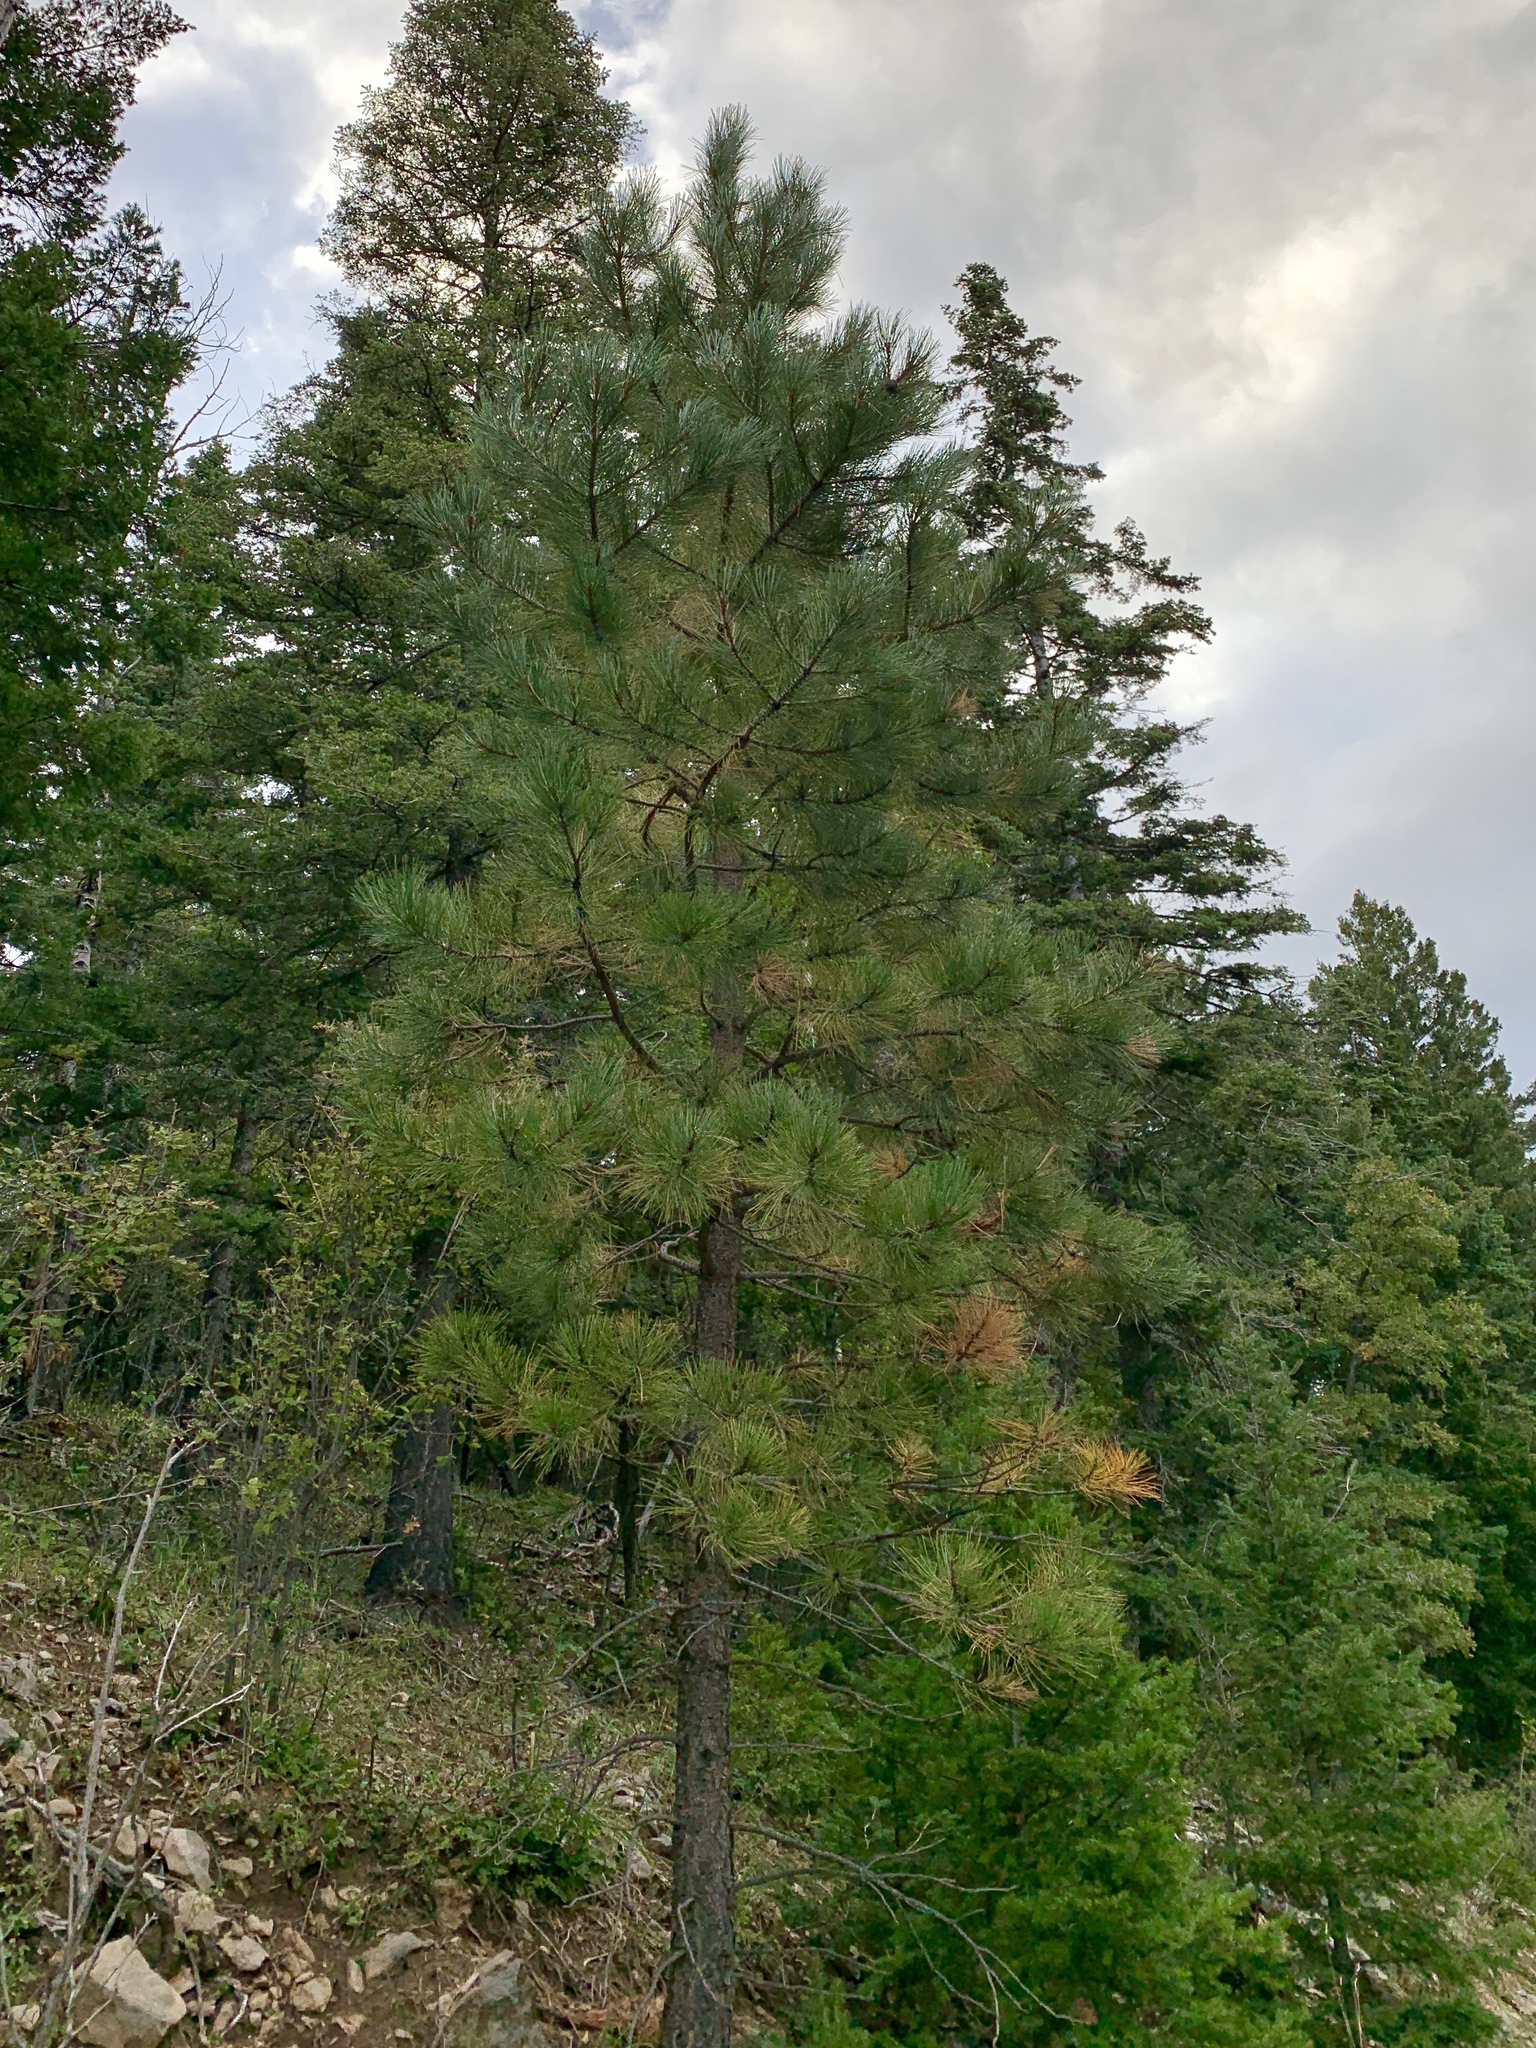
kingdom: Plantae
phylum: Tracheophyta
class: Pinopsida
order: Pinales
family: Pinaceae
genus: Pinus
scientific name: Pinus ponderosa
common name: Western yellow-pine
